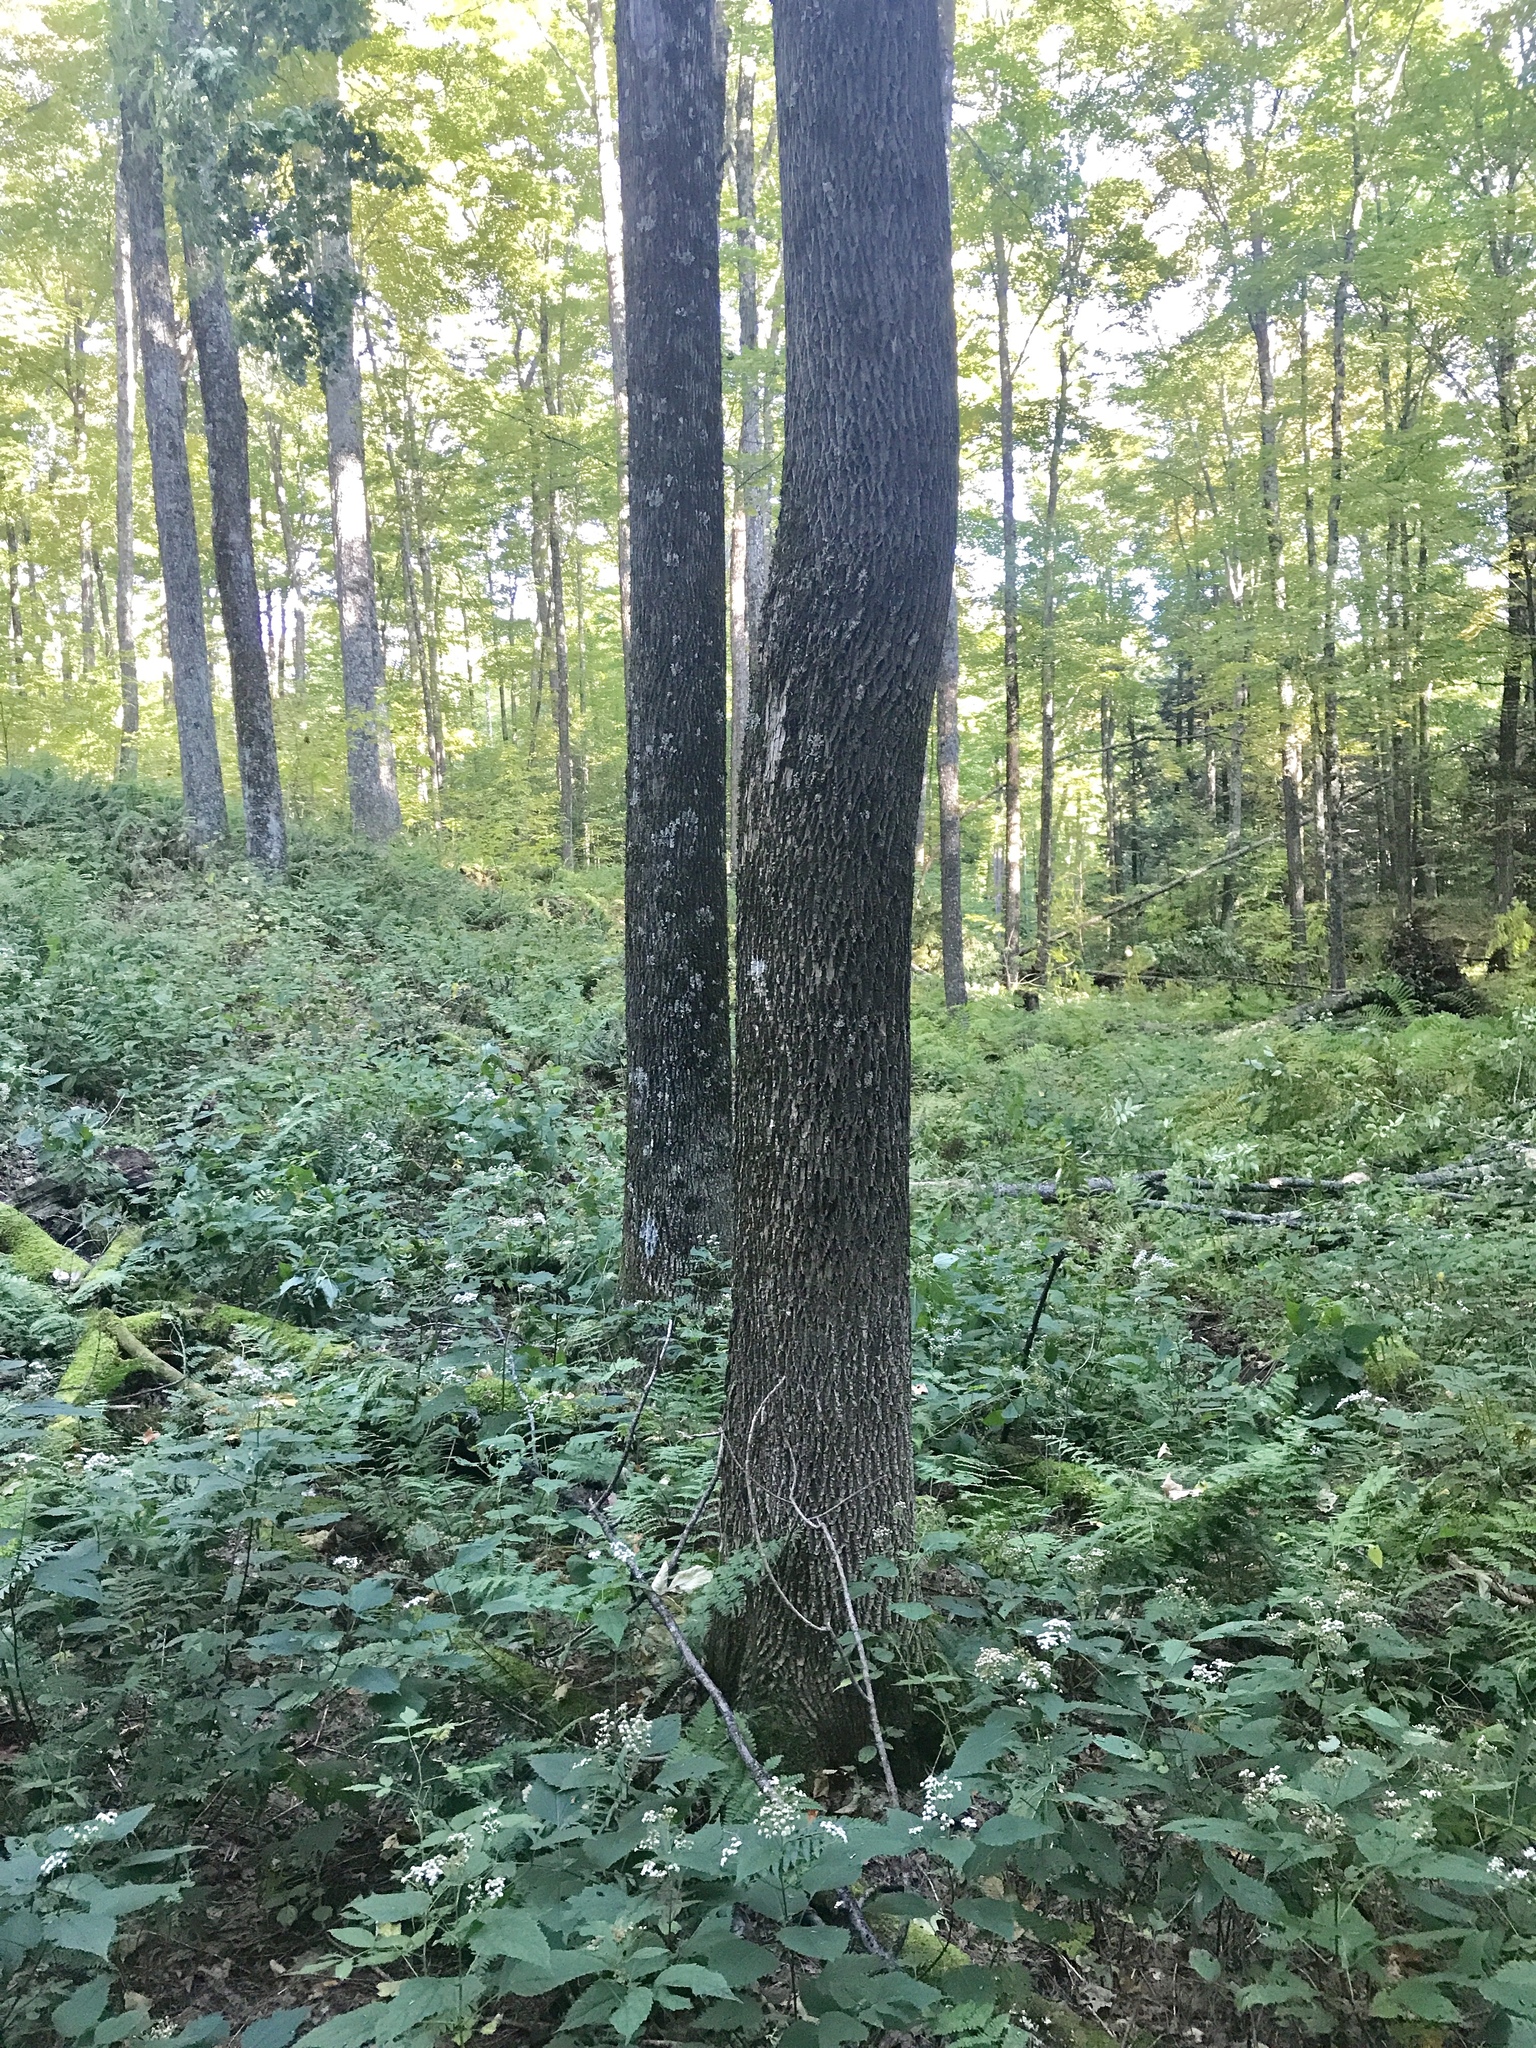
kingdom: Plantae
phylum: Tracheophyta
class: Magnoliopsida
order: Lamiales
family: Oleaceae
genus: Fraxinus
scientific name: Fraxinus americana
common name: White ash
